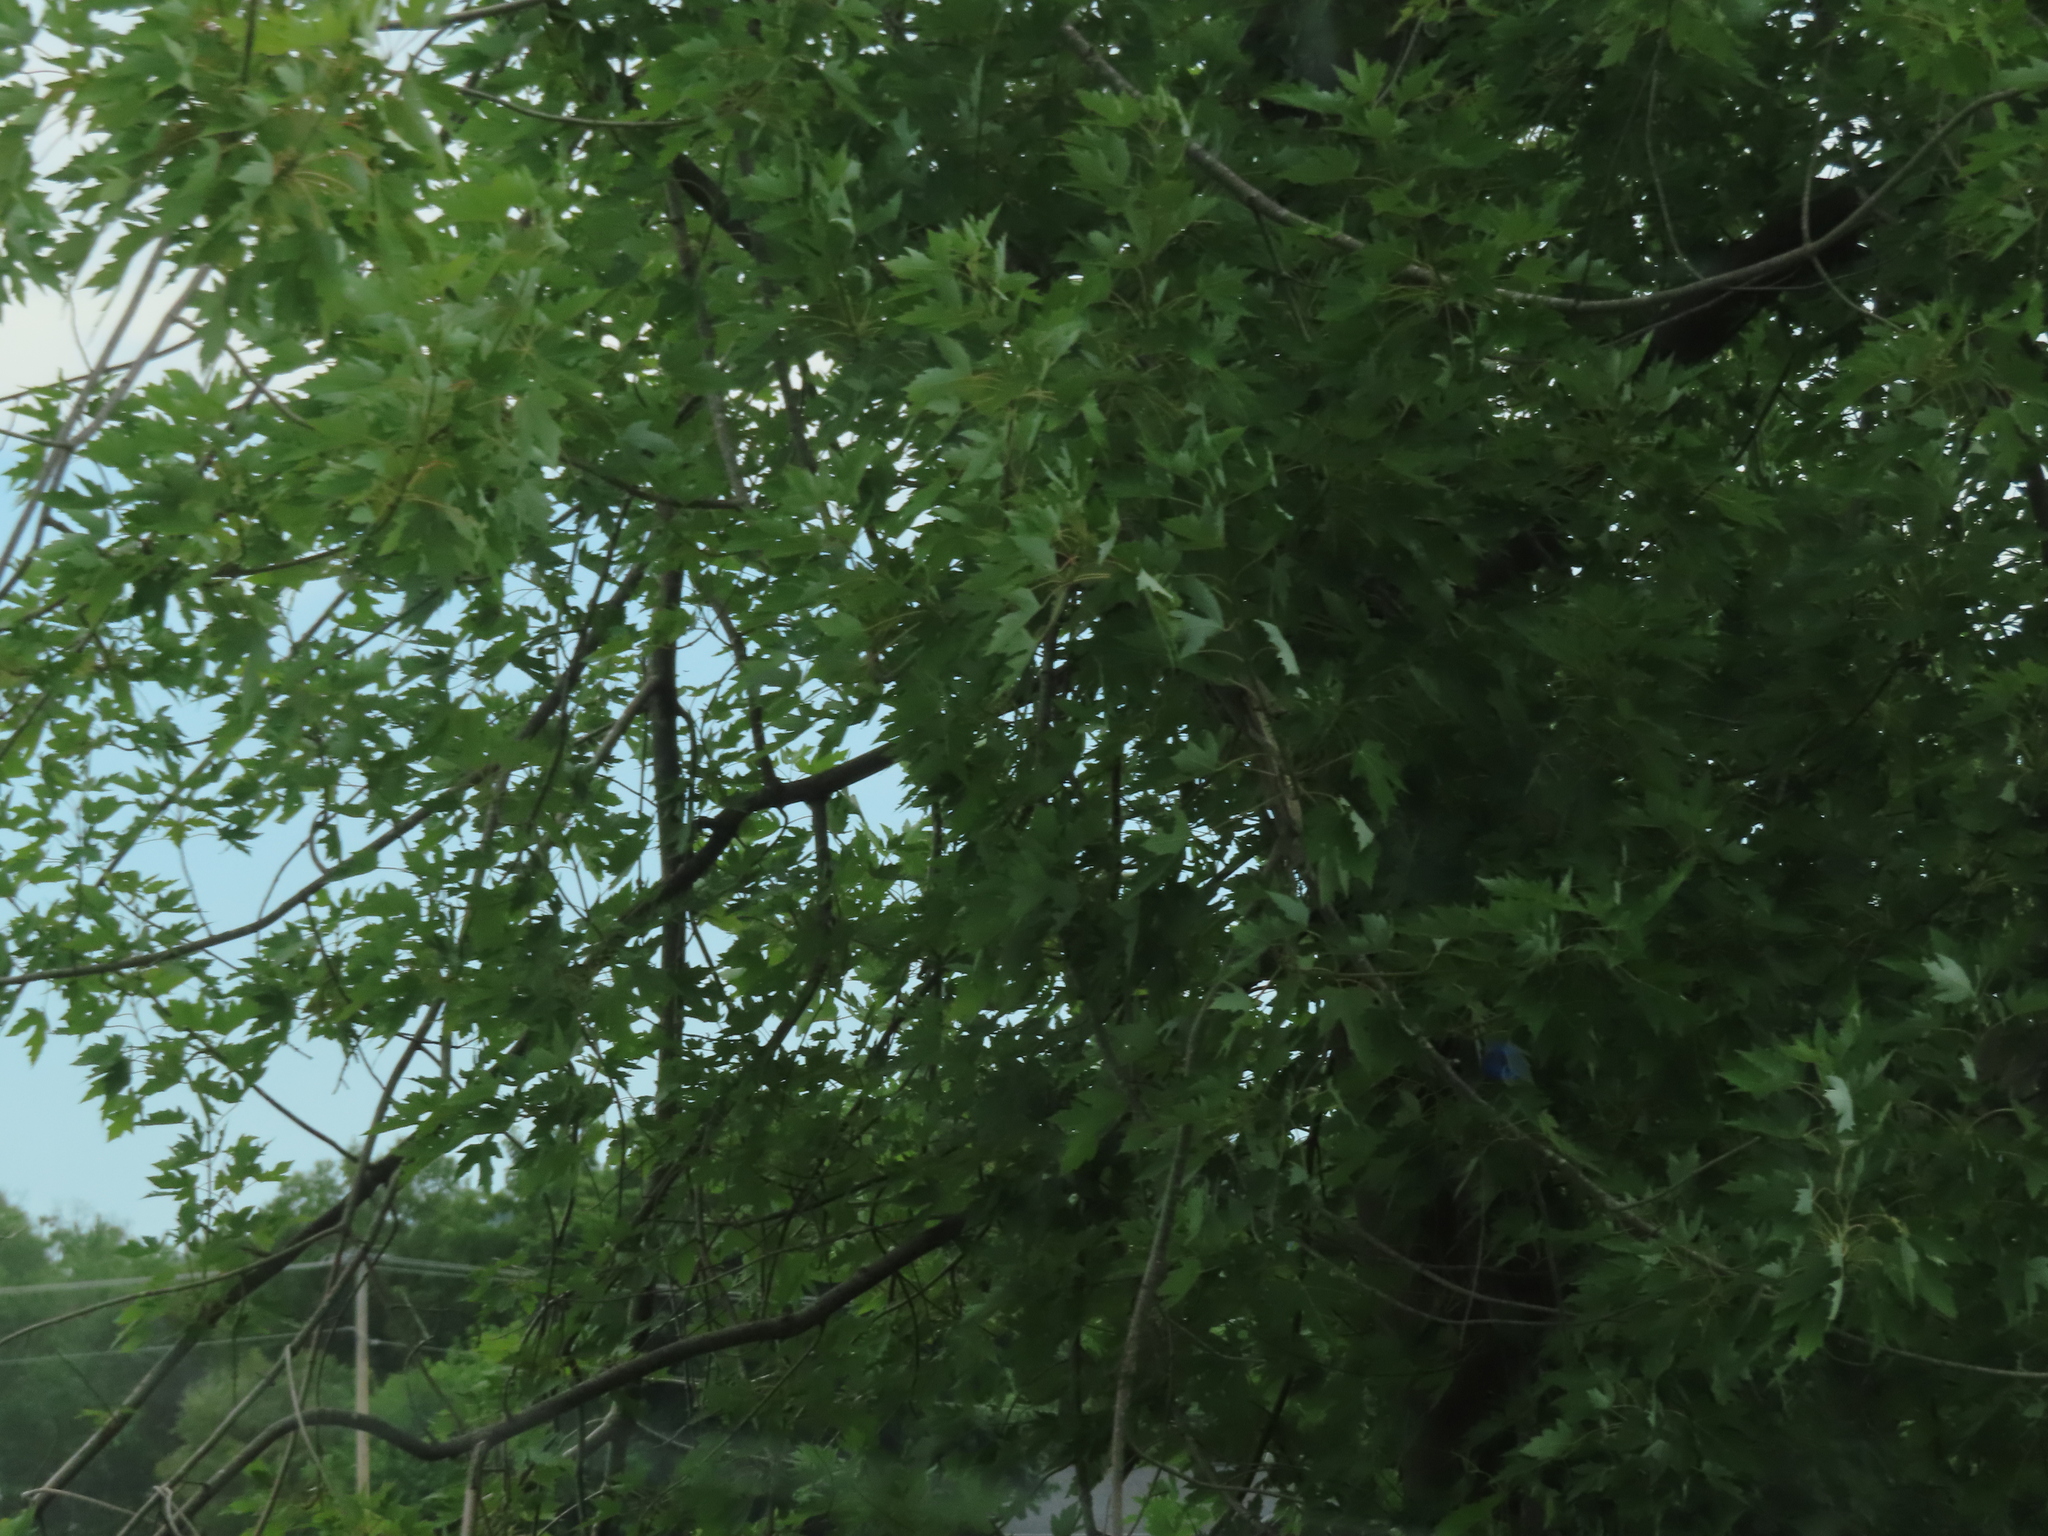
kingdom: Plantae
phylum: Tracheophyta
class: Magnoliopsida
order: Sapindales
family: Sapindaceae
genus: Acer
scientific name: Acer saccharinum
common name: Silver maple
